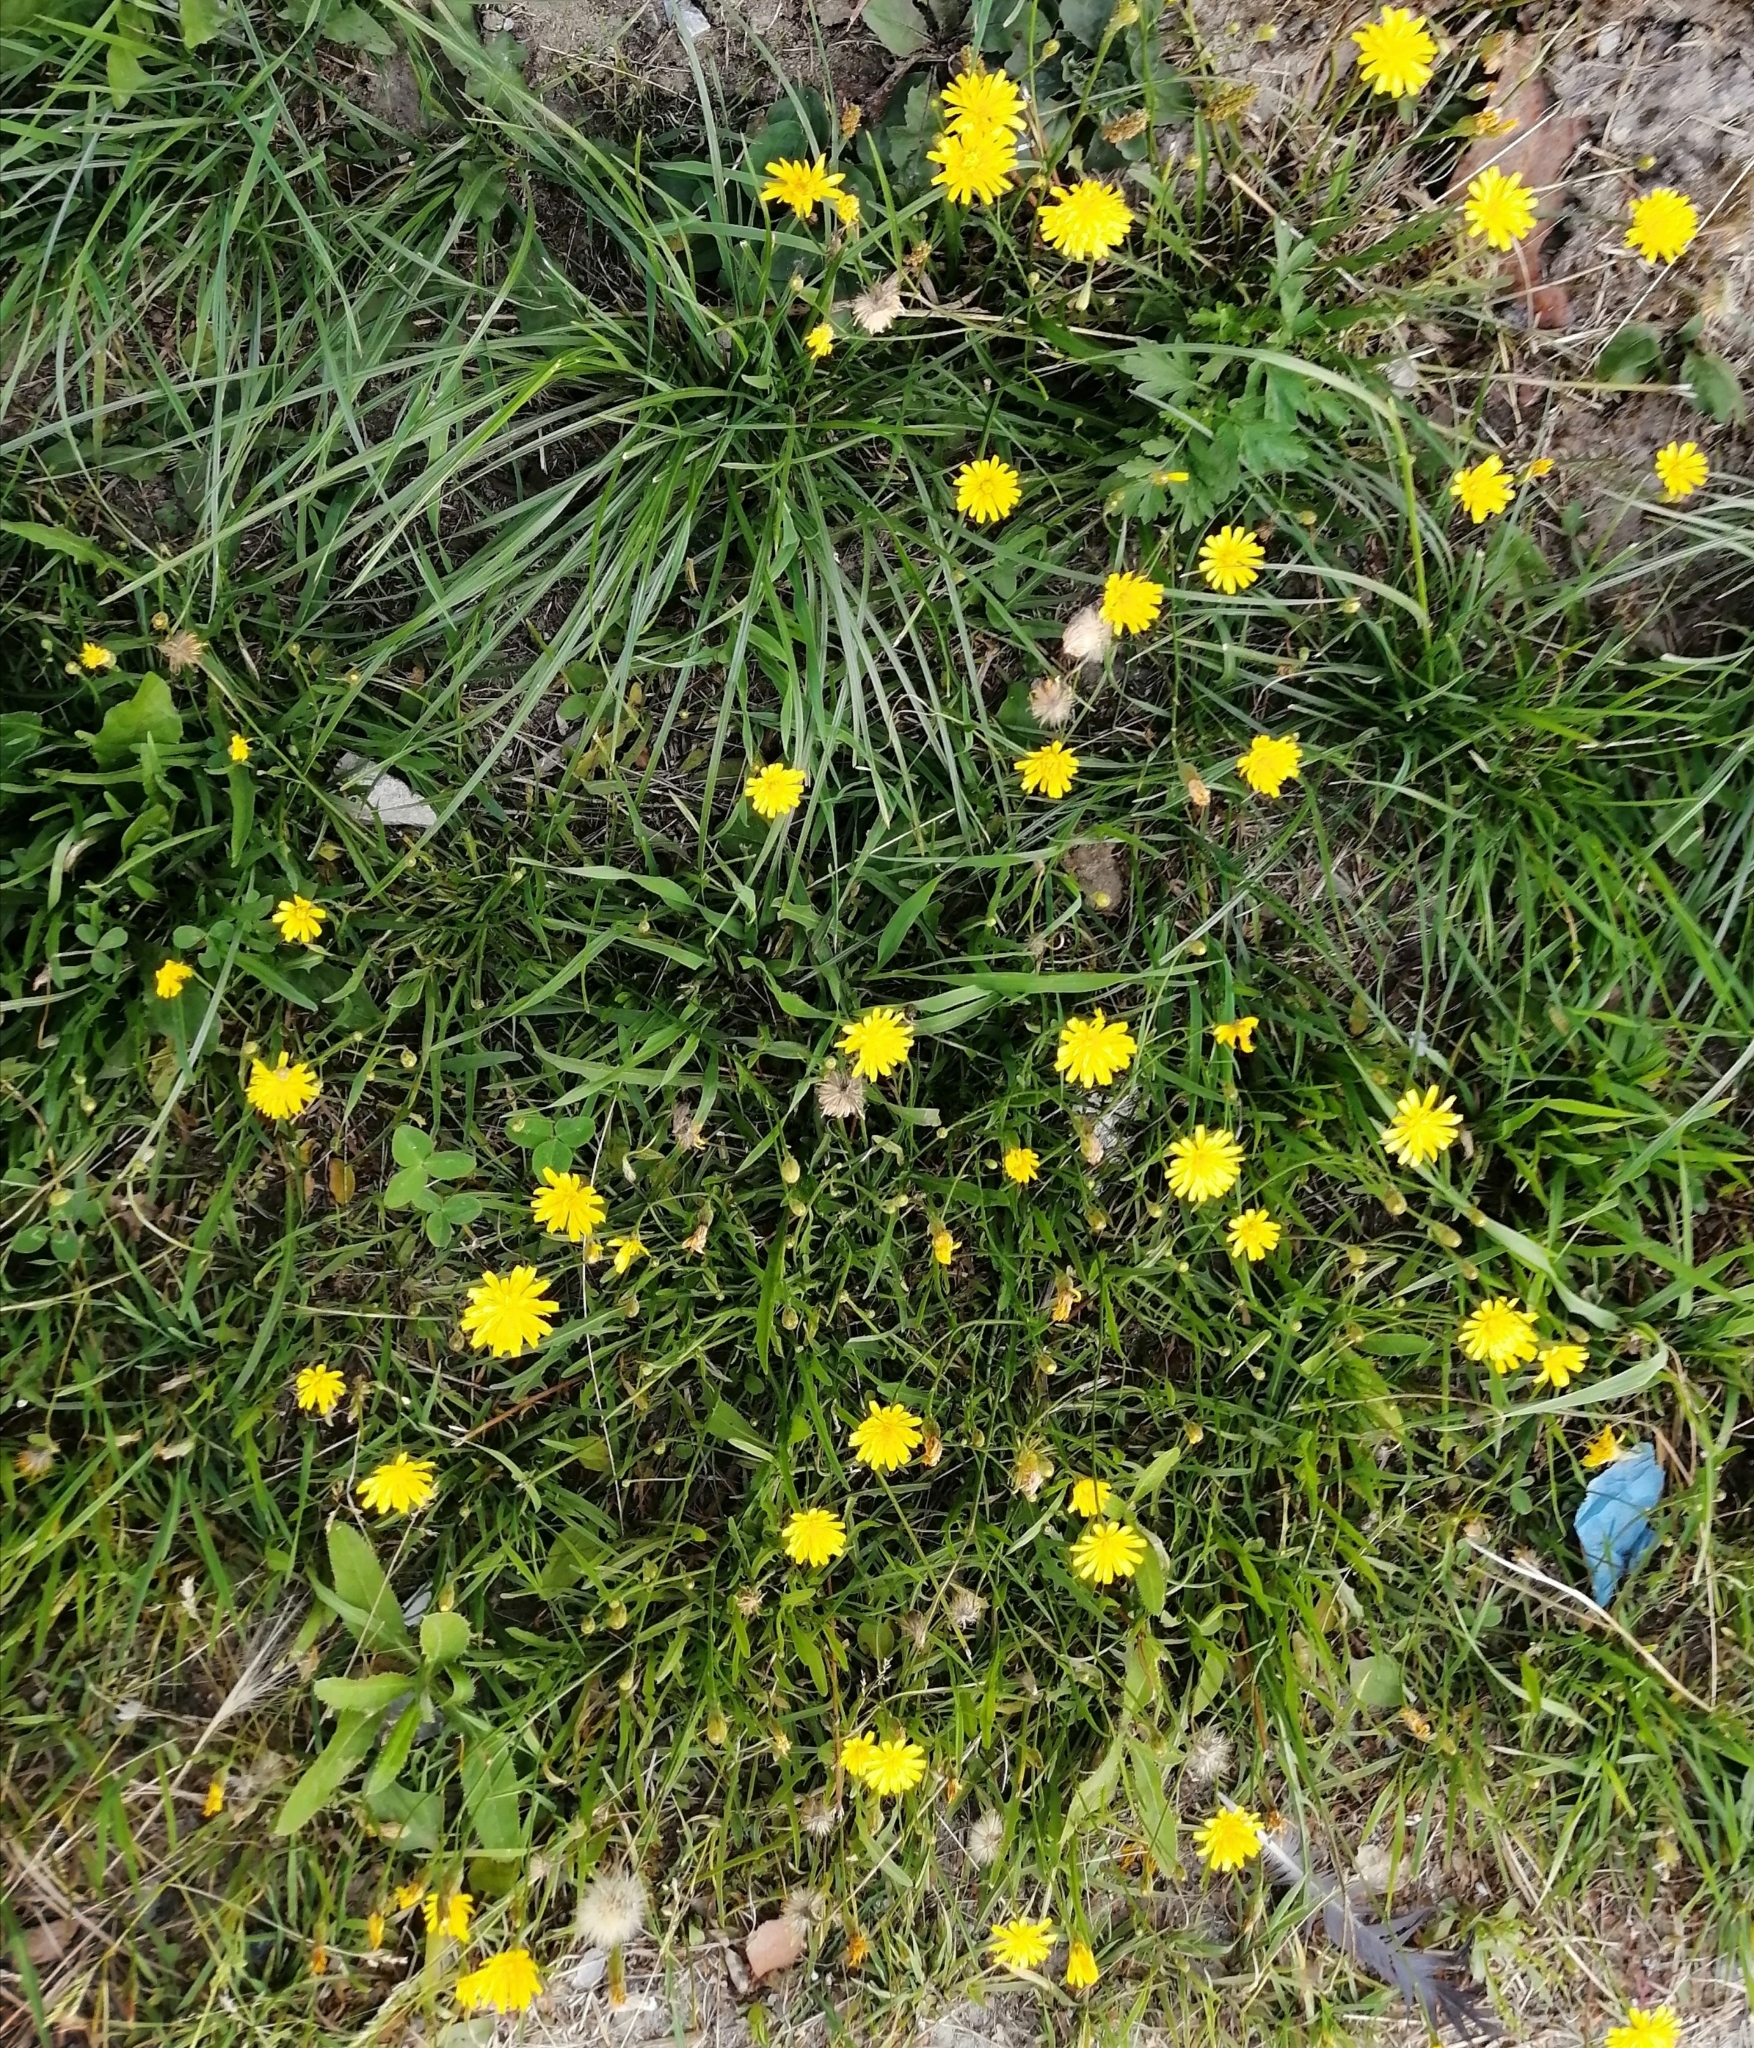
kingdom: Plantae
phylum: Tracheophyta
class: Magnoliopsida
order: Asterales
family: Asteraceae
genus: Scorzoneroides
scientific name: Scorzoneroides autumnalis
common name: Autumn hawkbit
